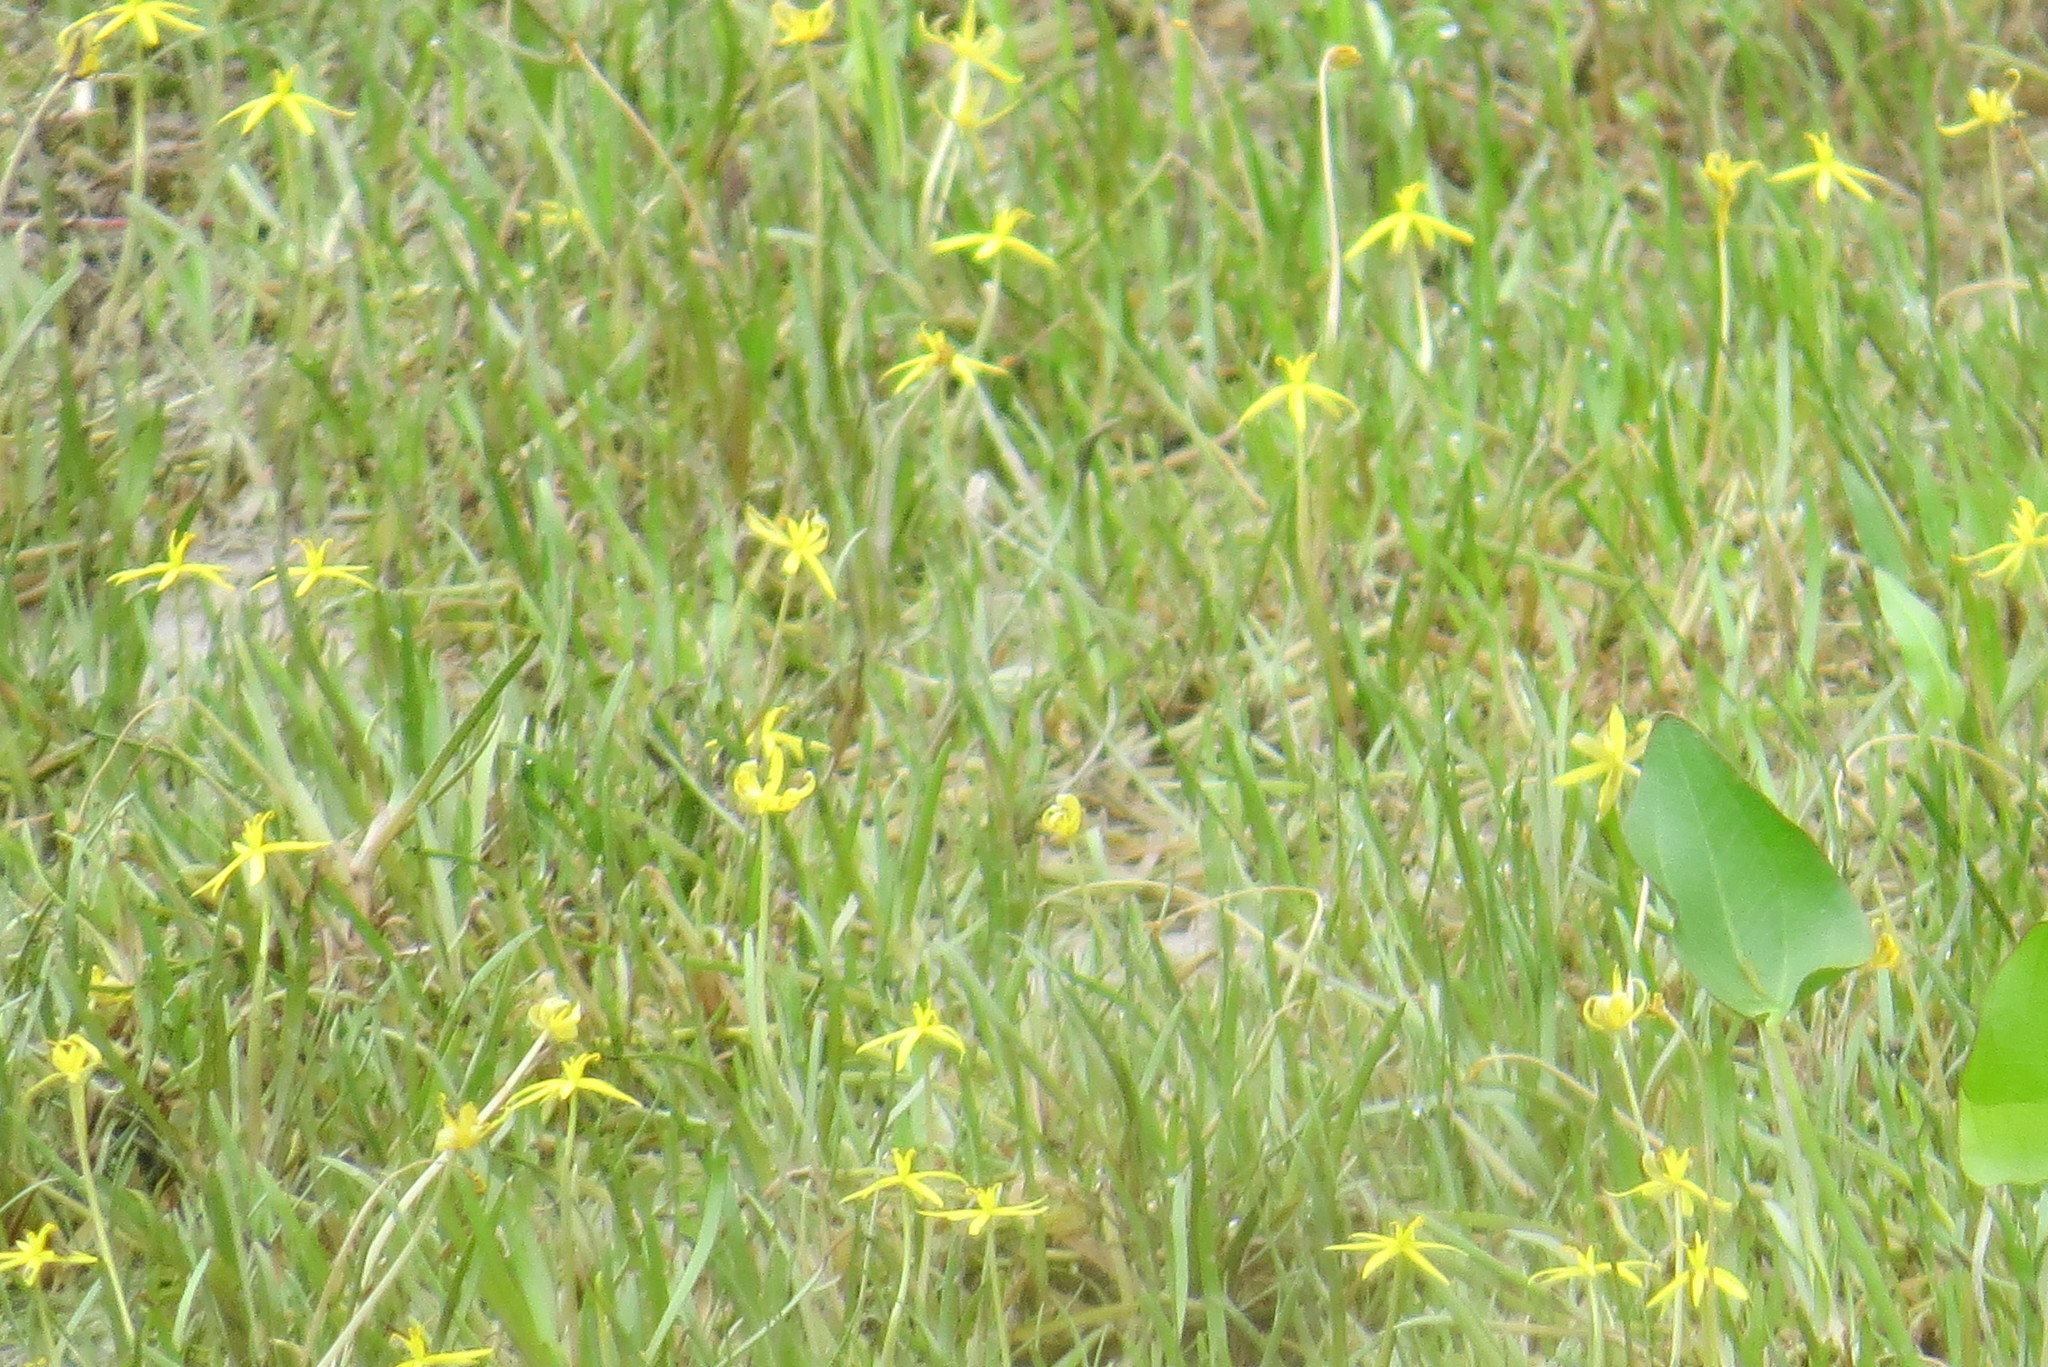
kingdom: Plantae
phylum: Tracheophyta
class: Liliopsida
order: Commelinales
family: Pontederiaceae
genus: Heteranthera
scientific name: Heteranthera dubia
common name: Grass-leaved mud plantain
